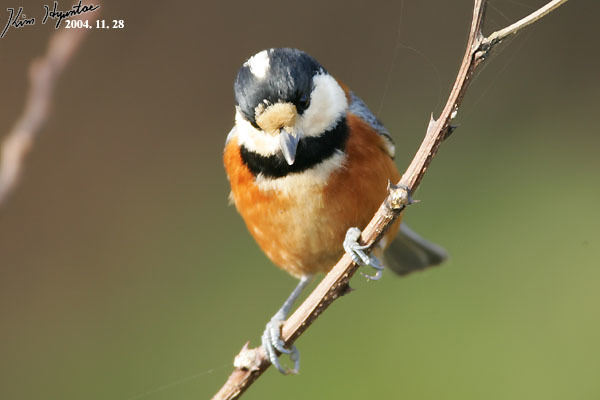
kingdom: Animalia
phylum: Chordata
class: Aves
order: Passeriformes
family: Paridae
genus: Poecile
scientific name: Poecile varius
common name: Varied tit
